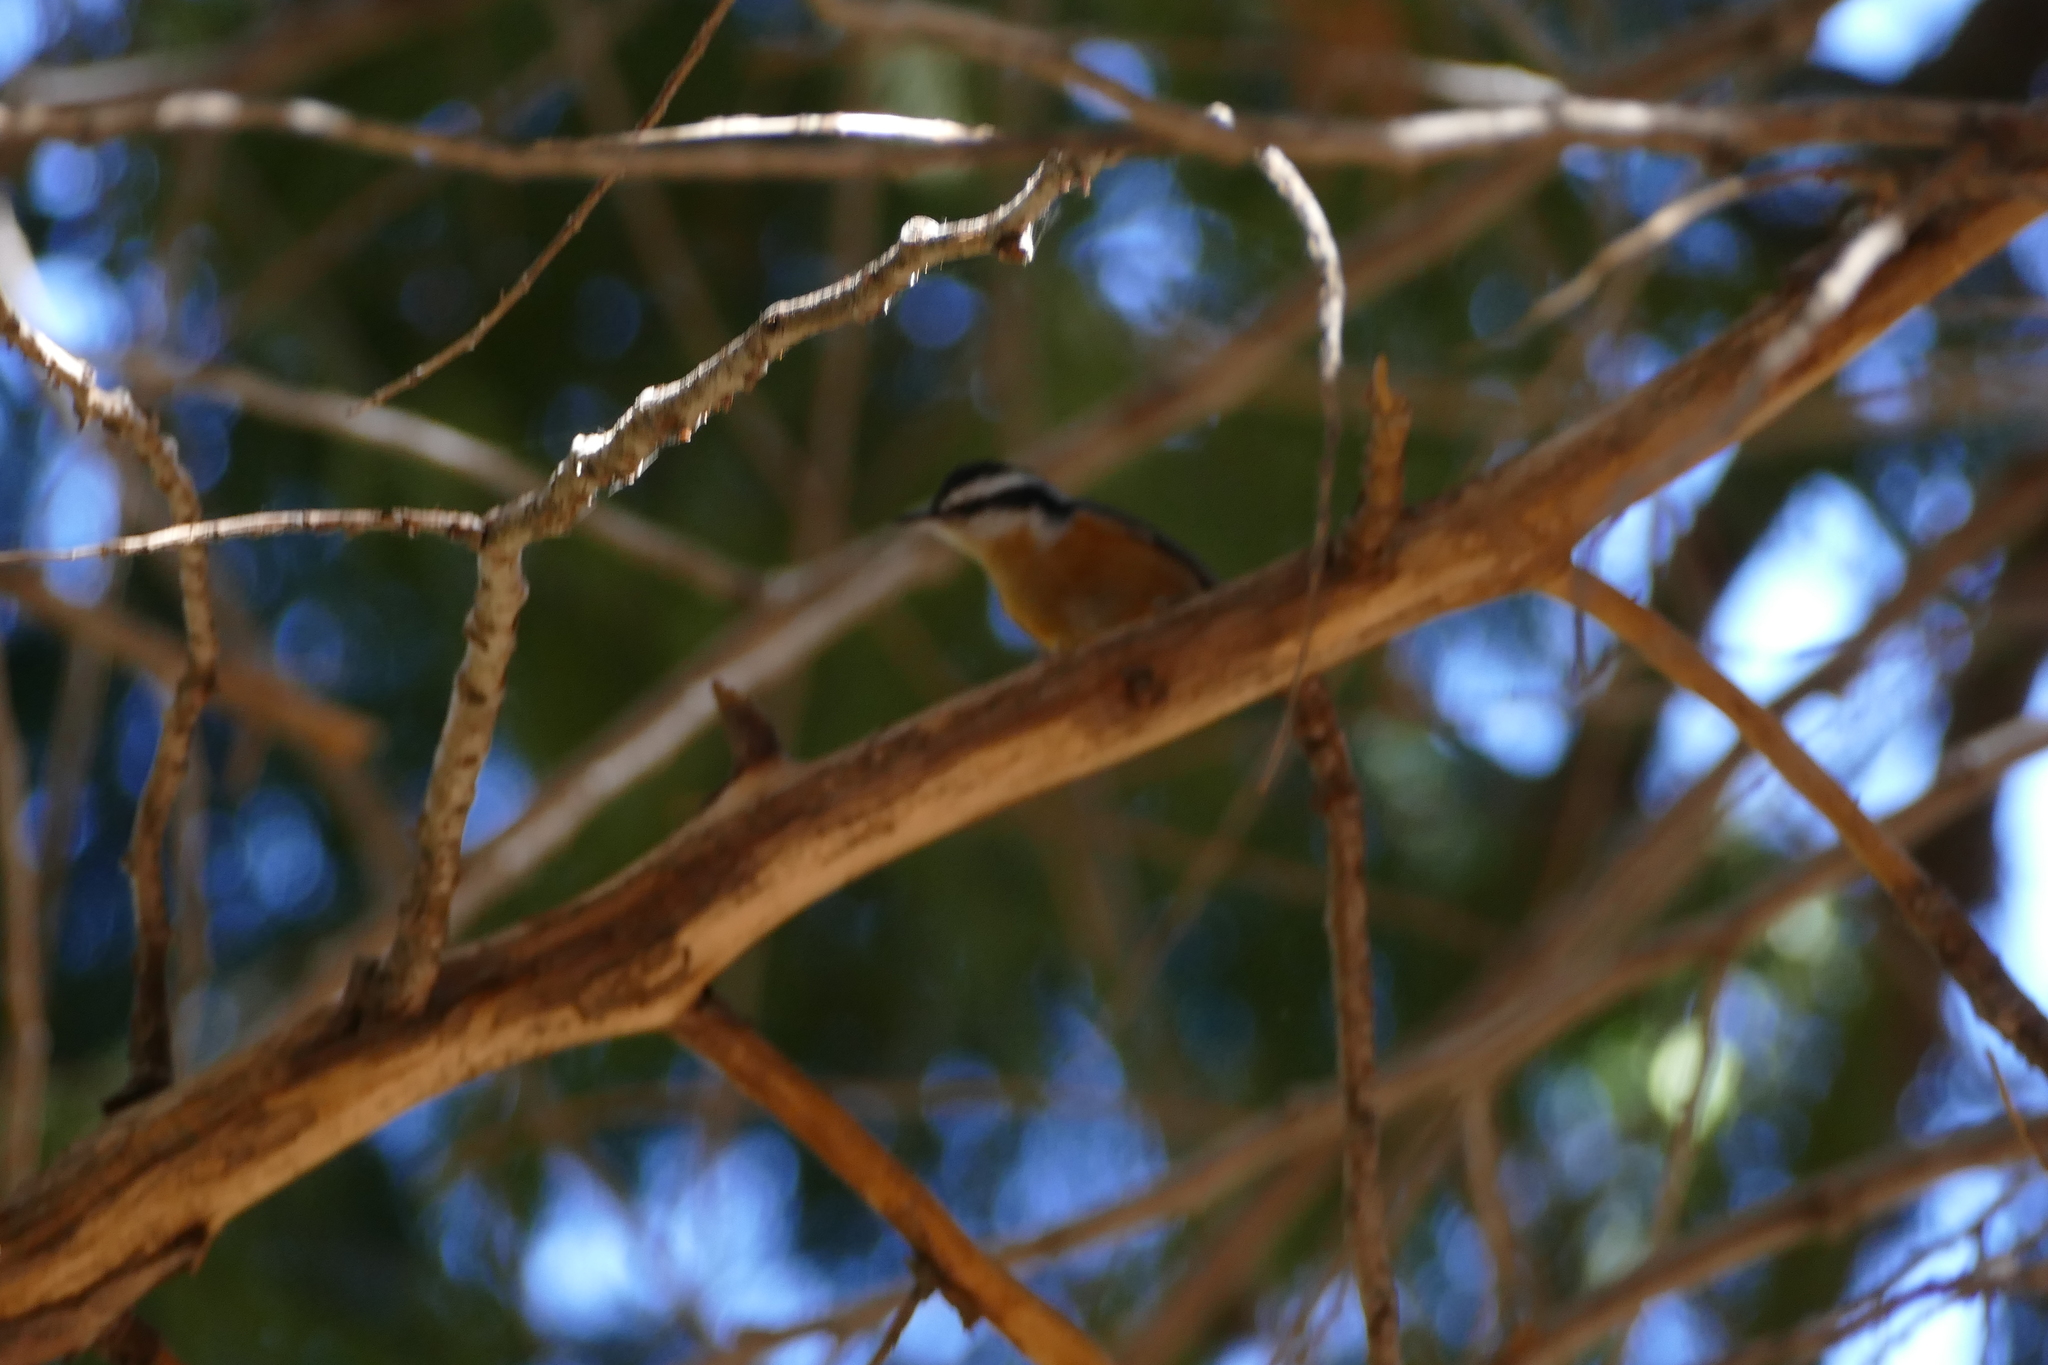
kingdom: Animalia
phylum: Chordata
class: Aves
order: Passeriformes
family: Sittidae
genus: Sitta
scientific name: Sitta canadensis
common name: Red-breasted nuthatch
